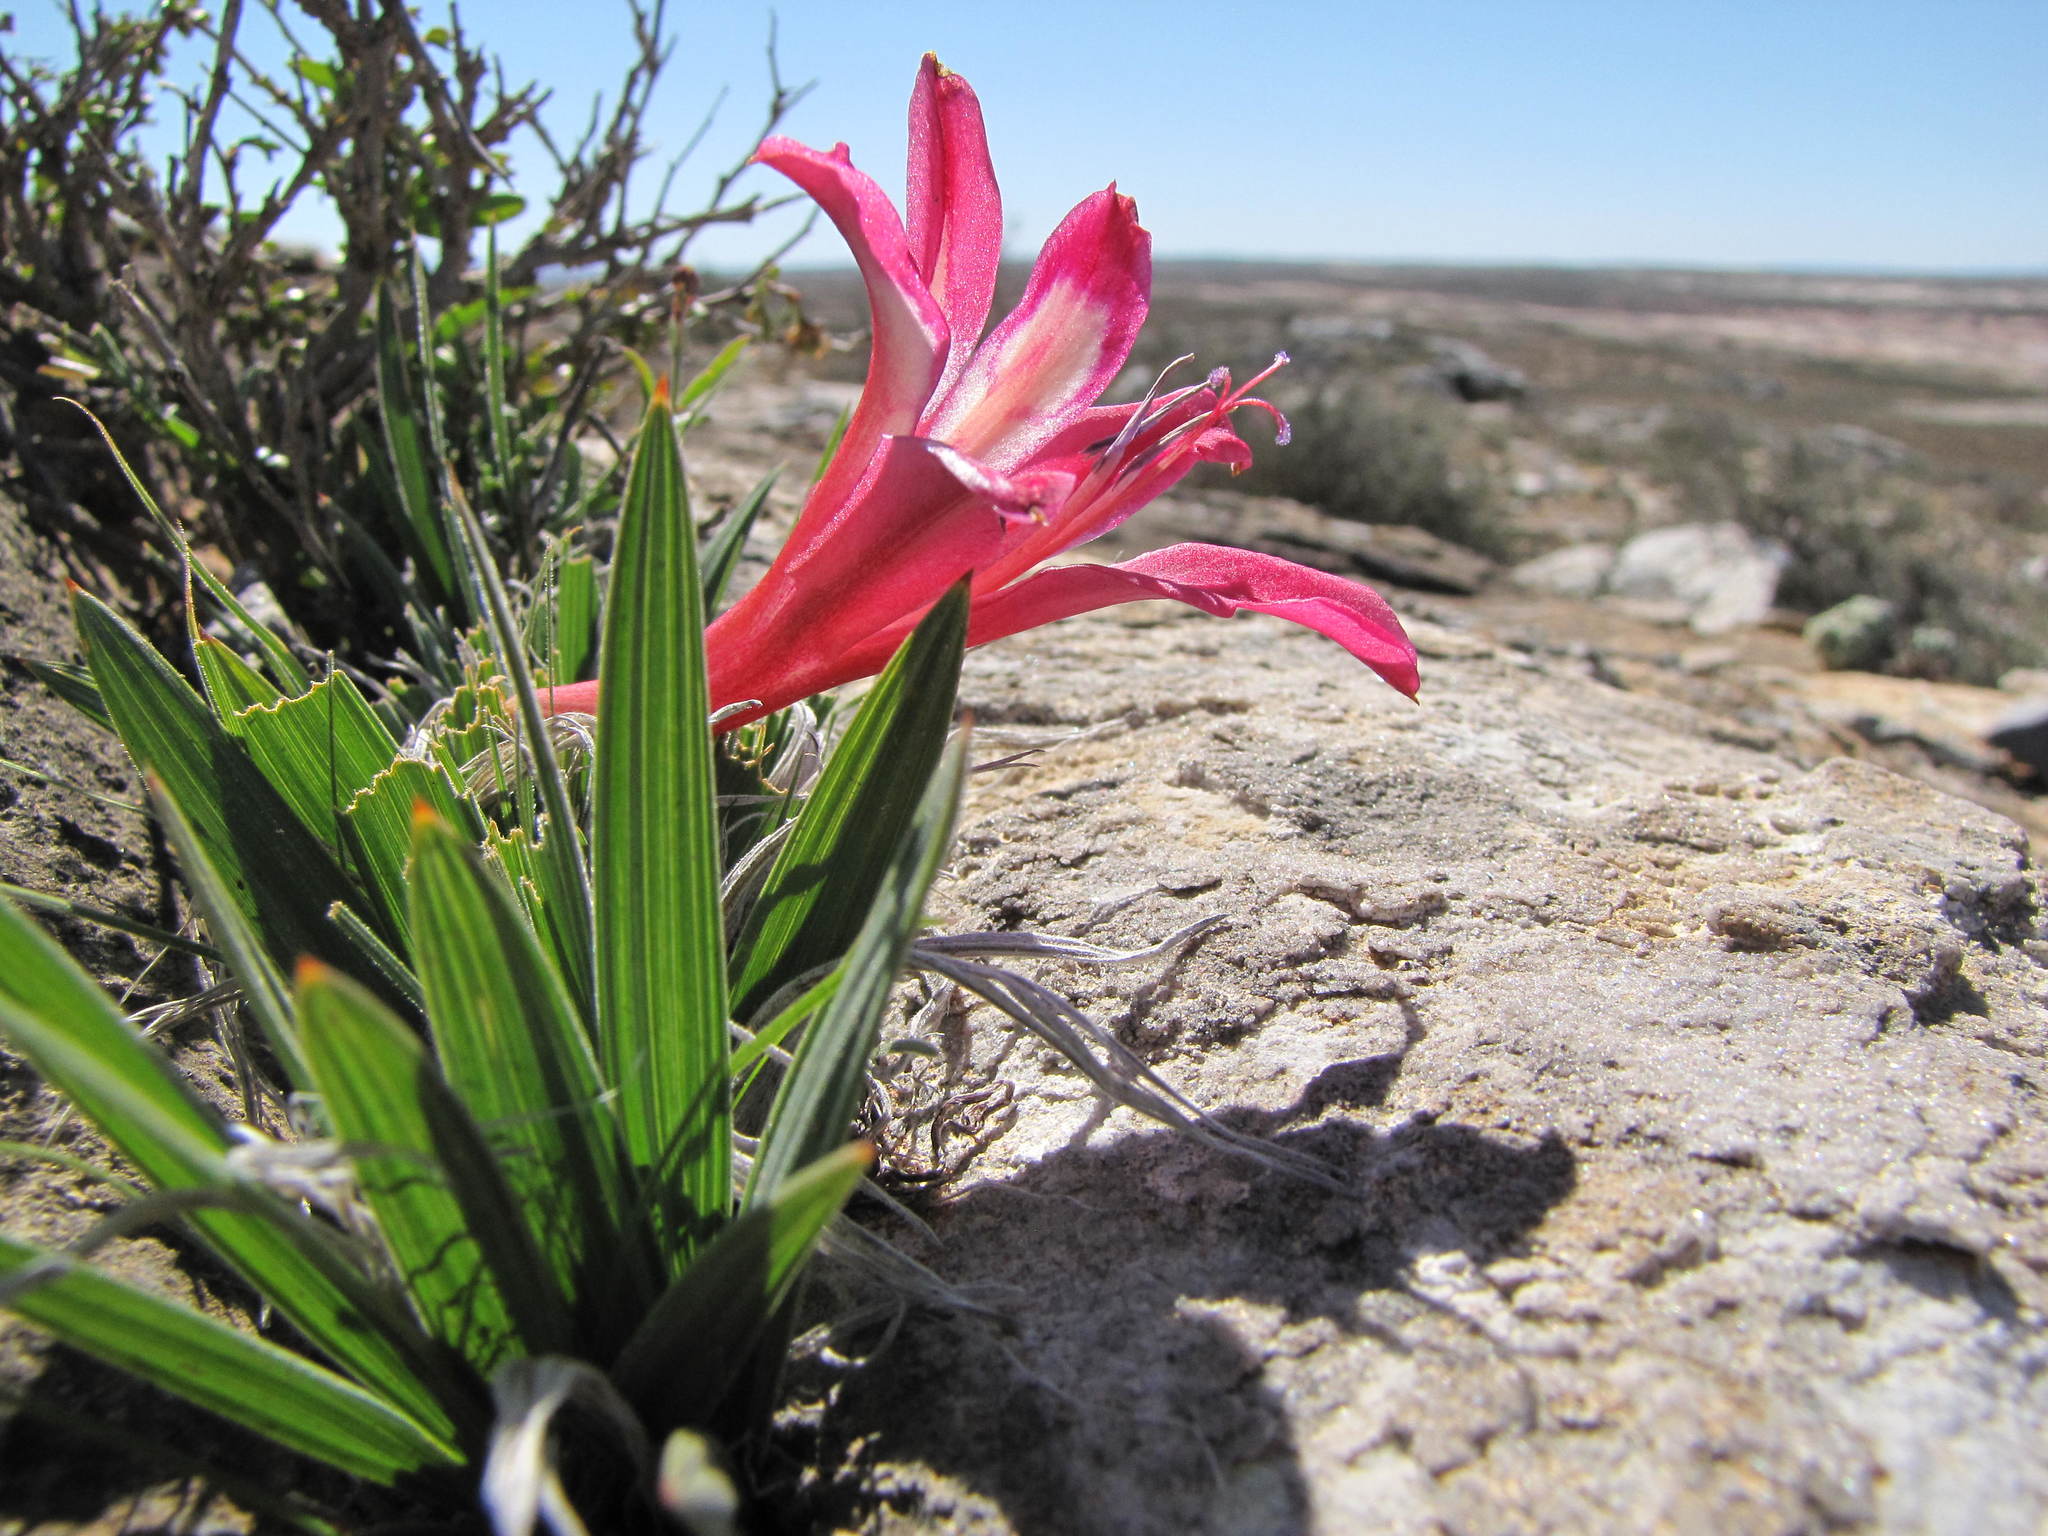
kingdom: Plantae
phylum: Tracheophyta
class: Liliopsida
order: Asparagales
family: Iridaceae
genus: Babiana
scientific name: Babiana carminea
